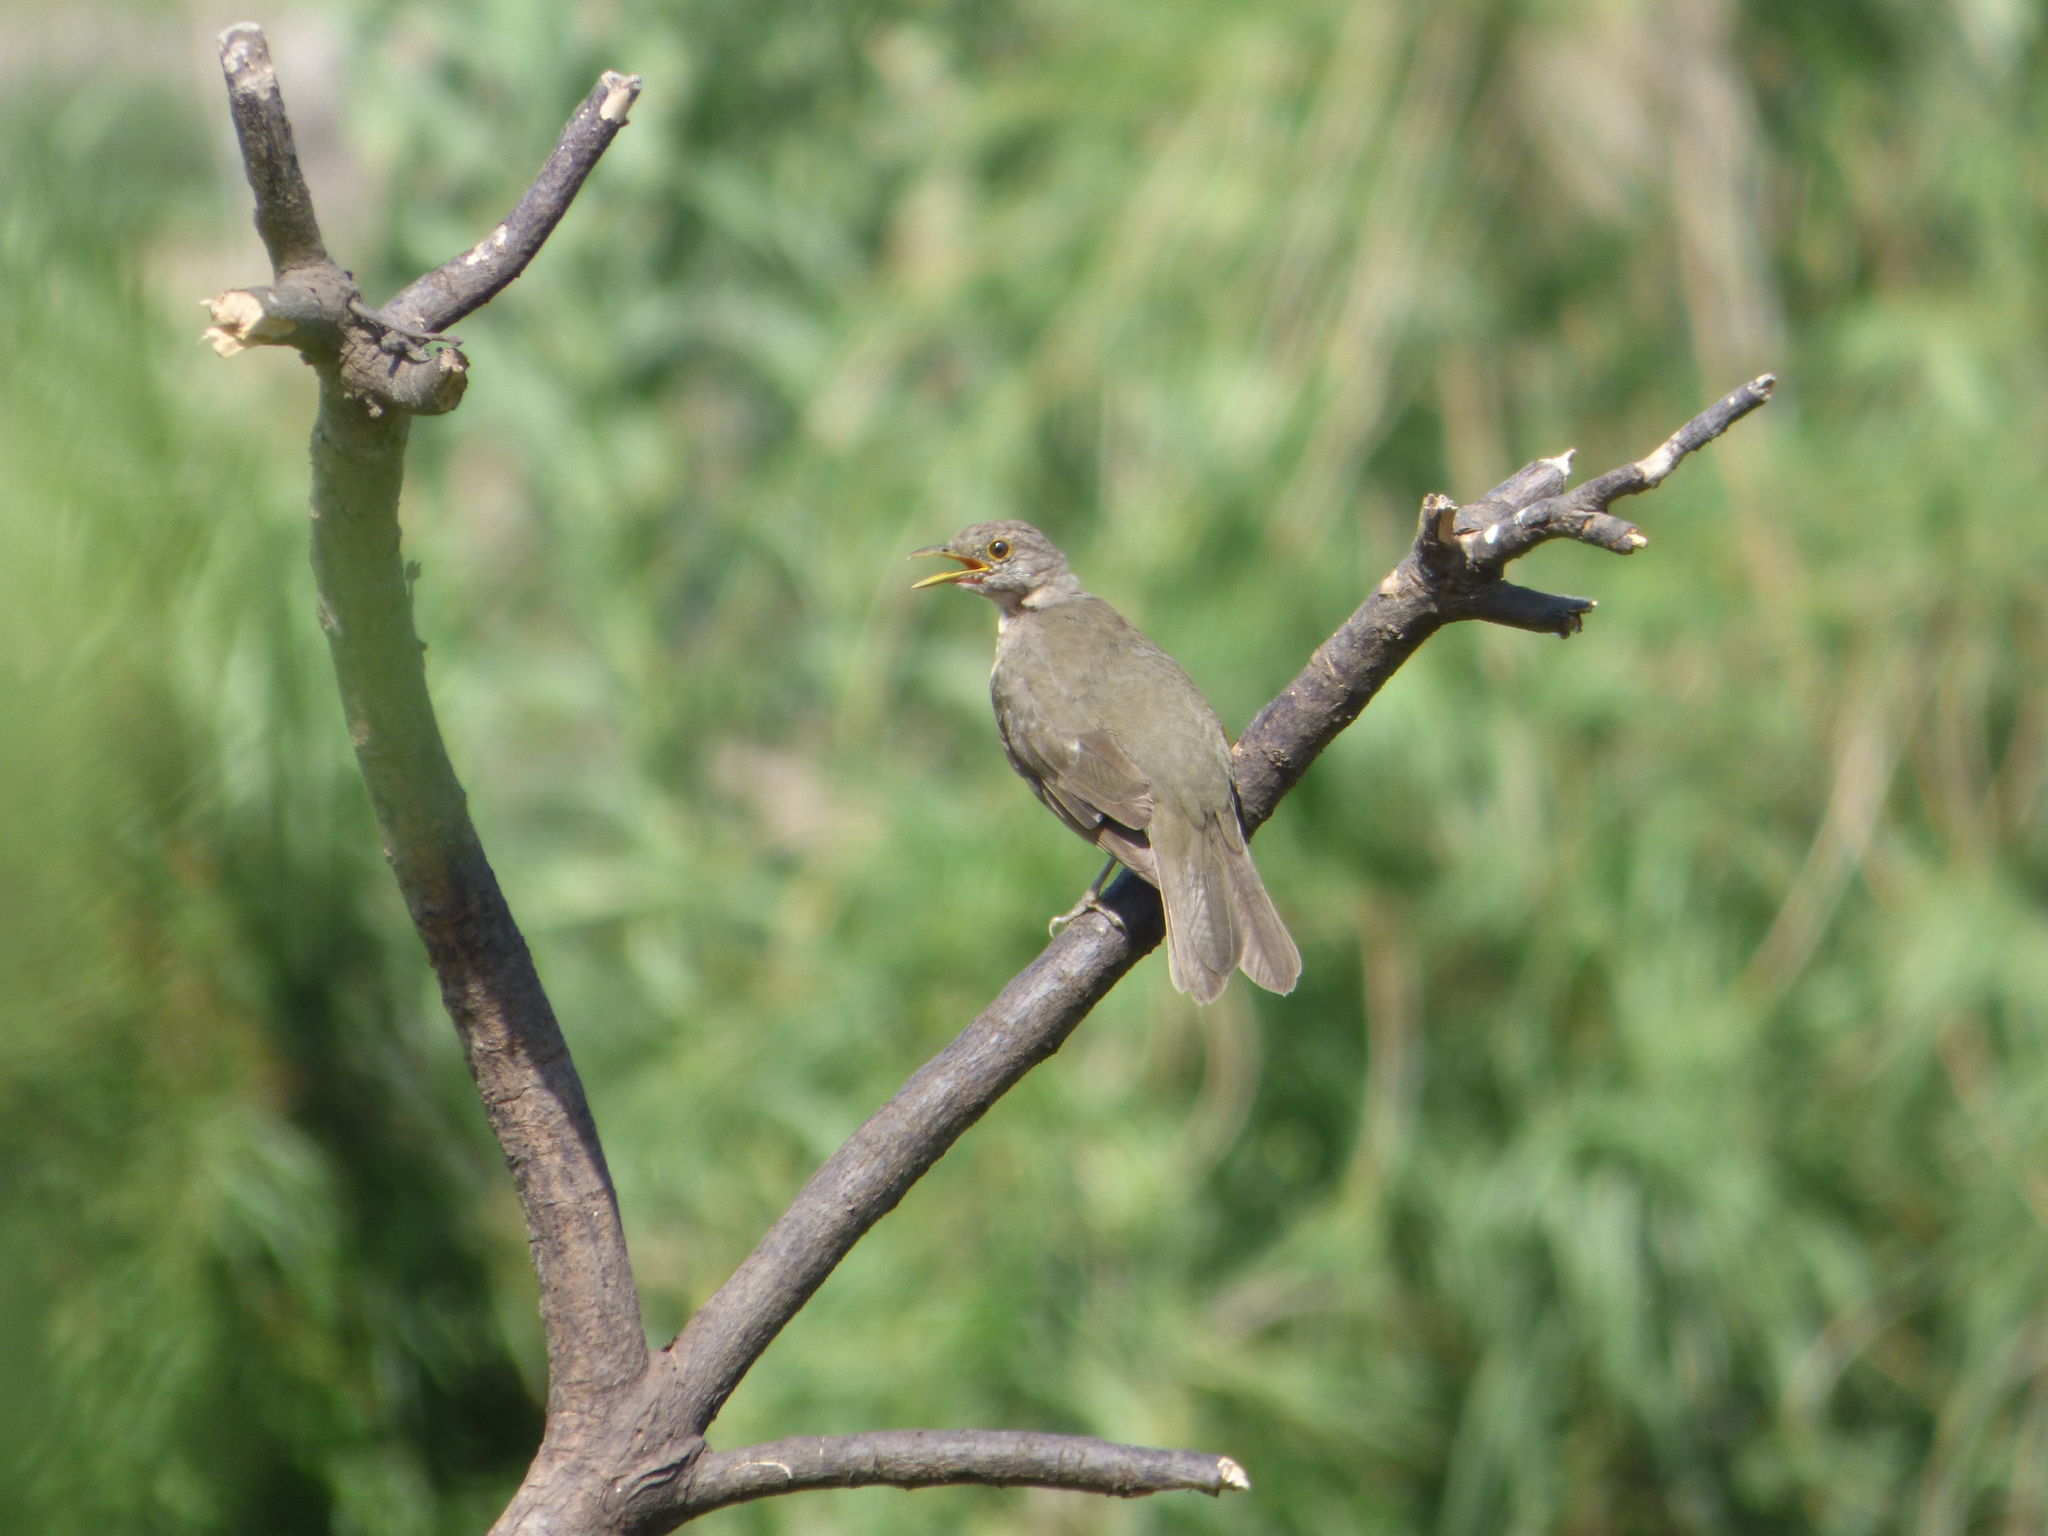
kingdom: Animalia
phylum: Chordata
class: Aves
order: Passeriformes
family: Turdidae
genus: Turdus
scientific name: Turdus rufiventris
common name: Rufous-bellied thrush
